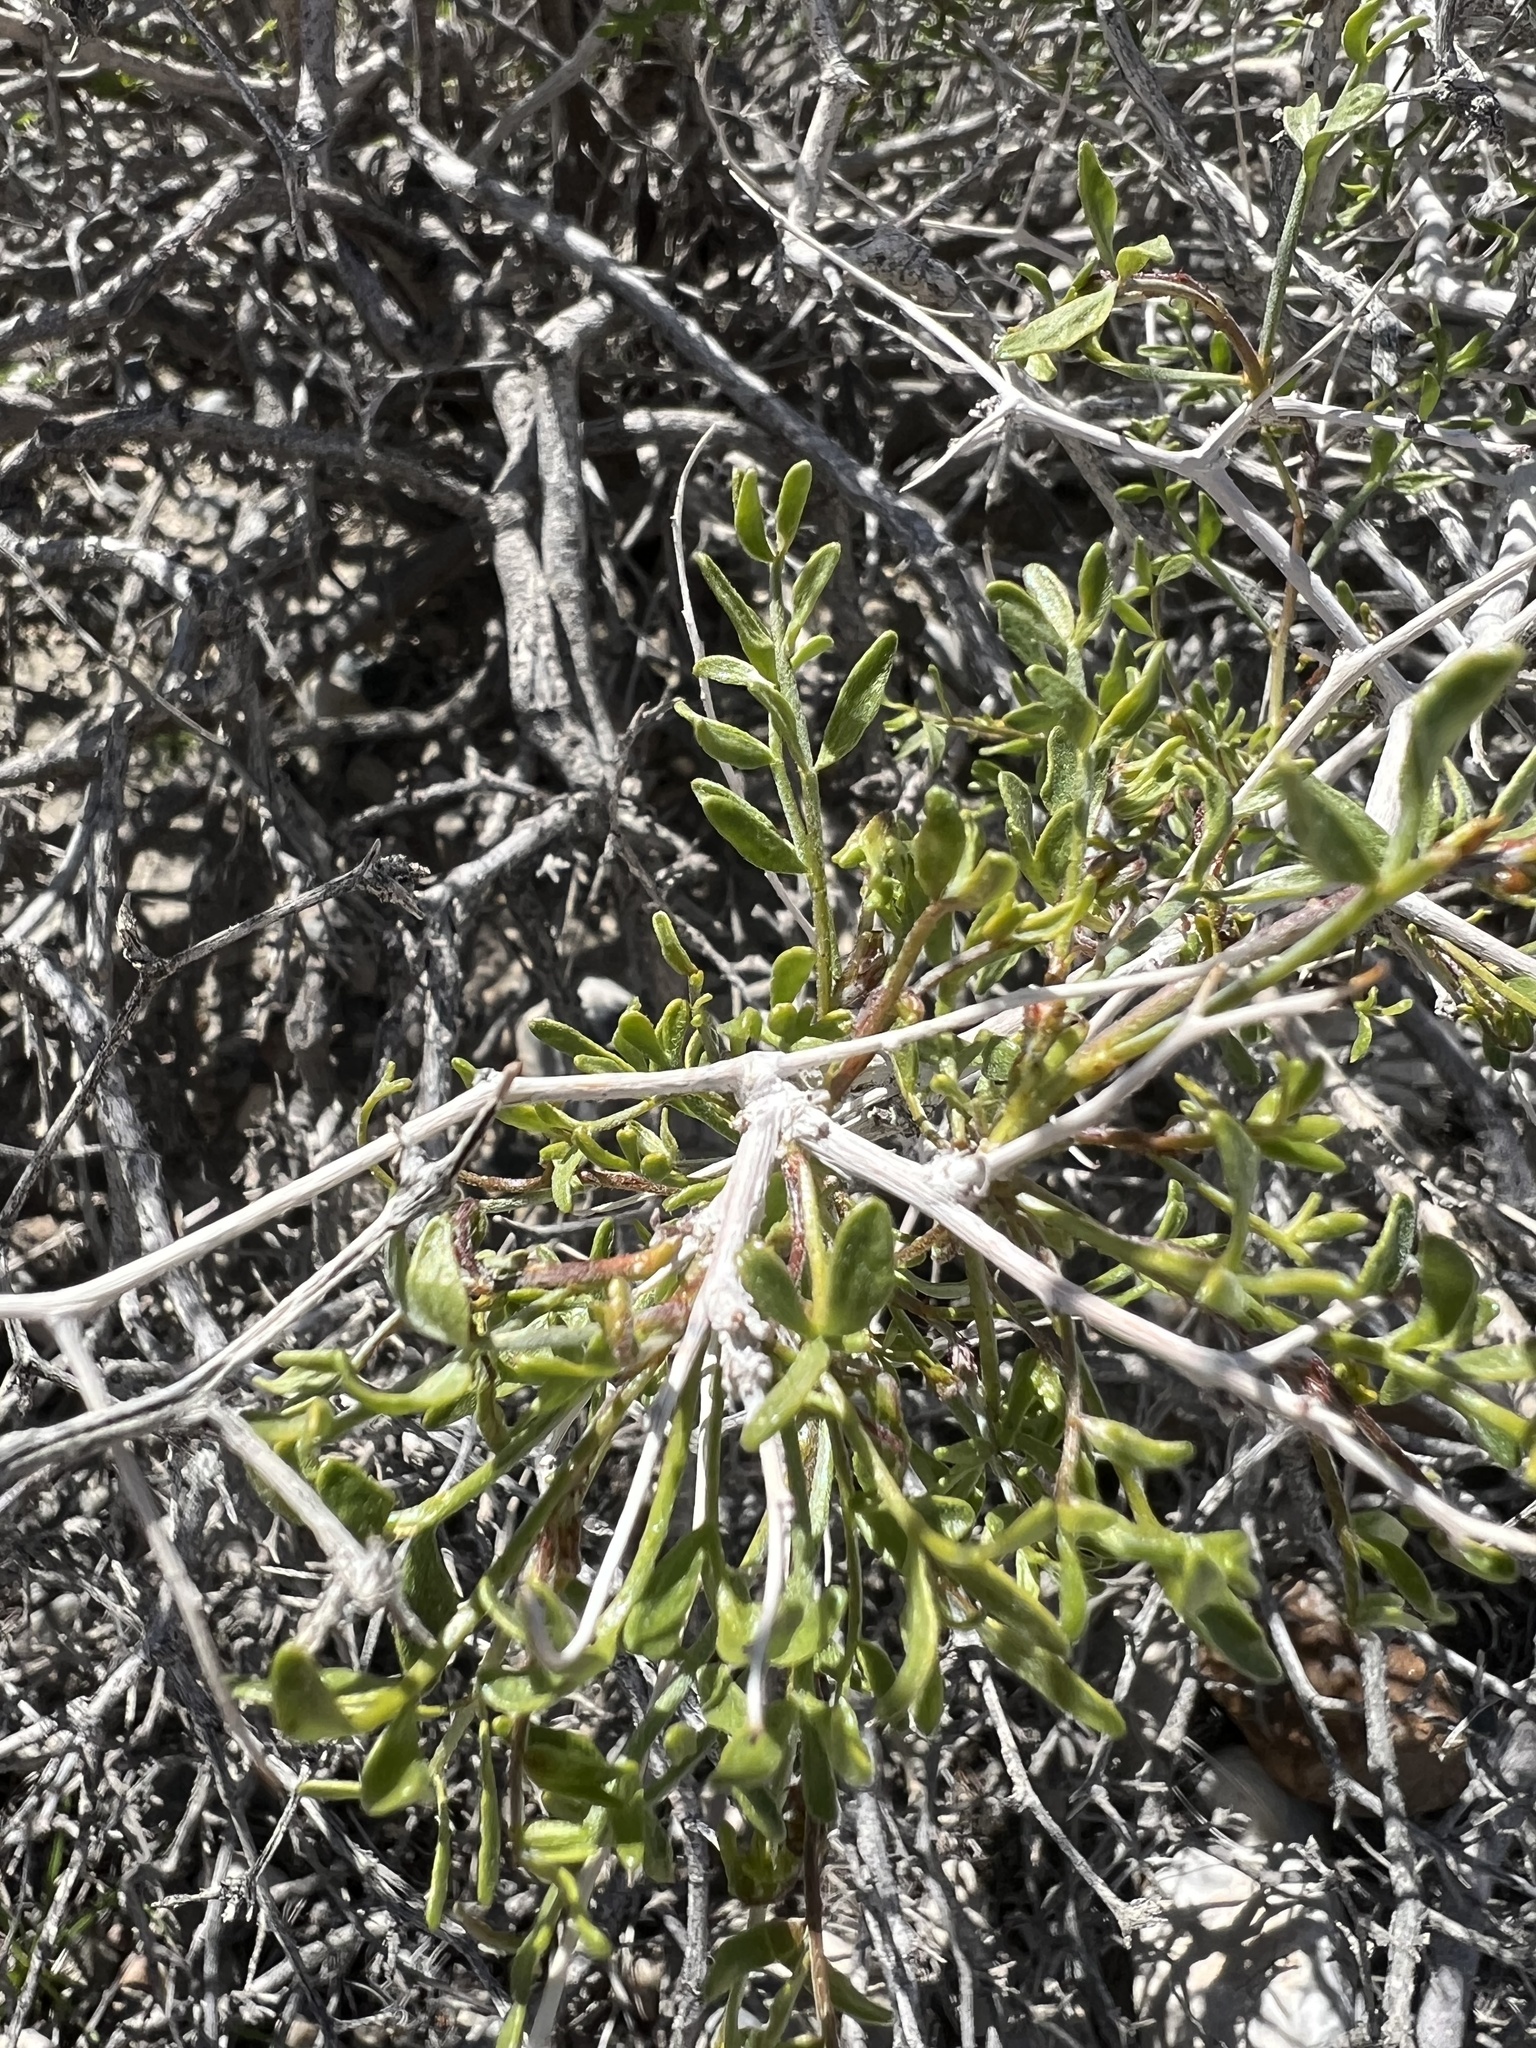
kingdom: Plantae
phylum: Tracheophyta
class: Magnoliopsida
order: Fabales
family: Fabaceae
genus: Psorothamnus
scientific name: Psorothamnus arborescens
